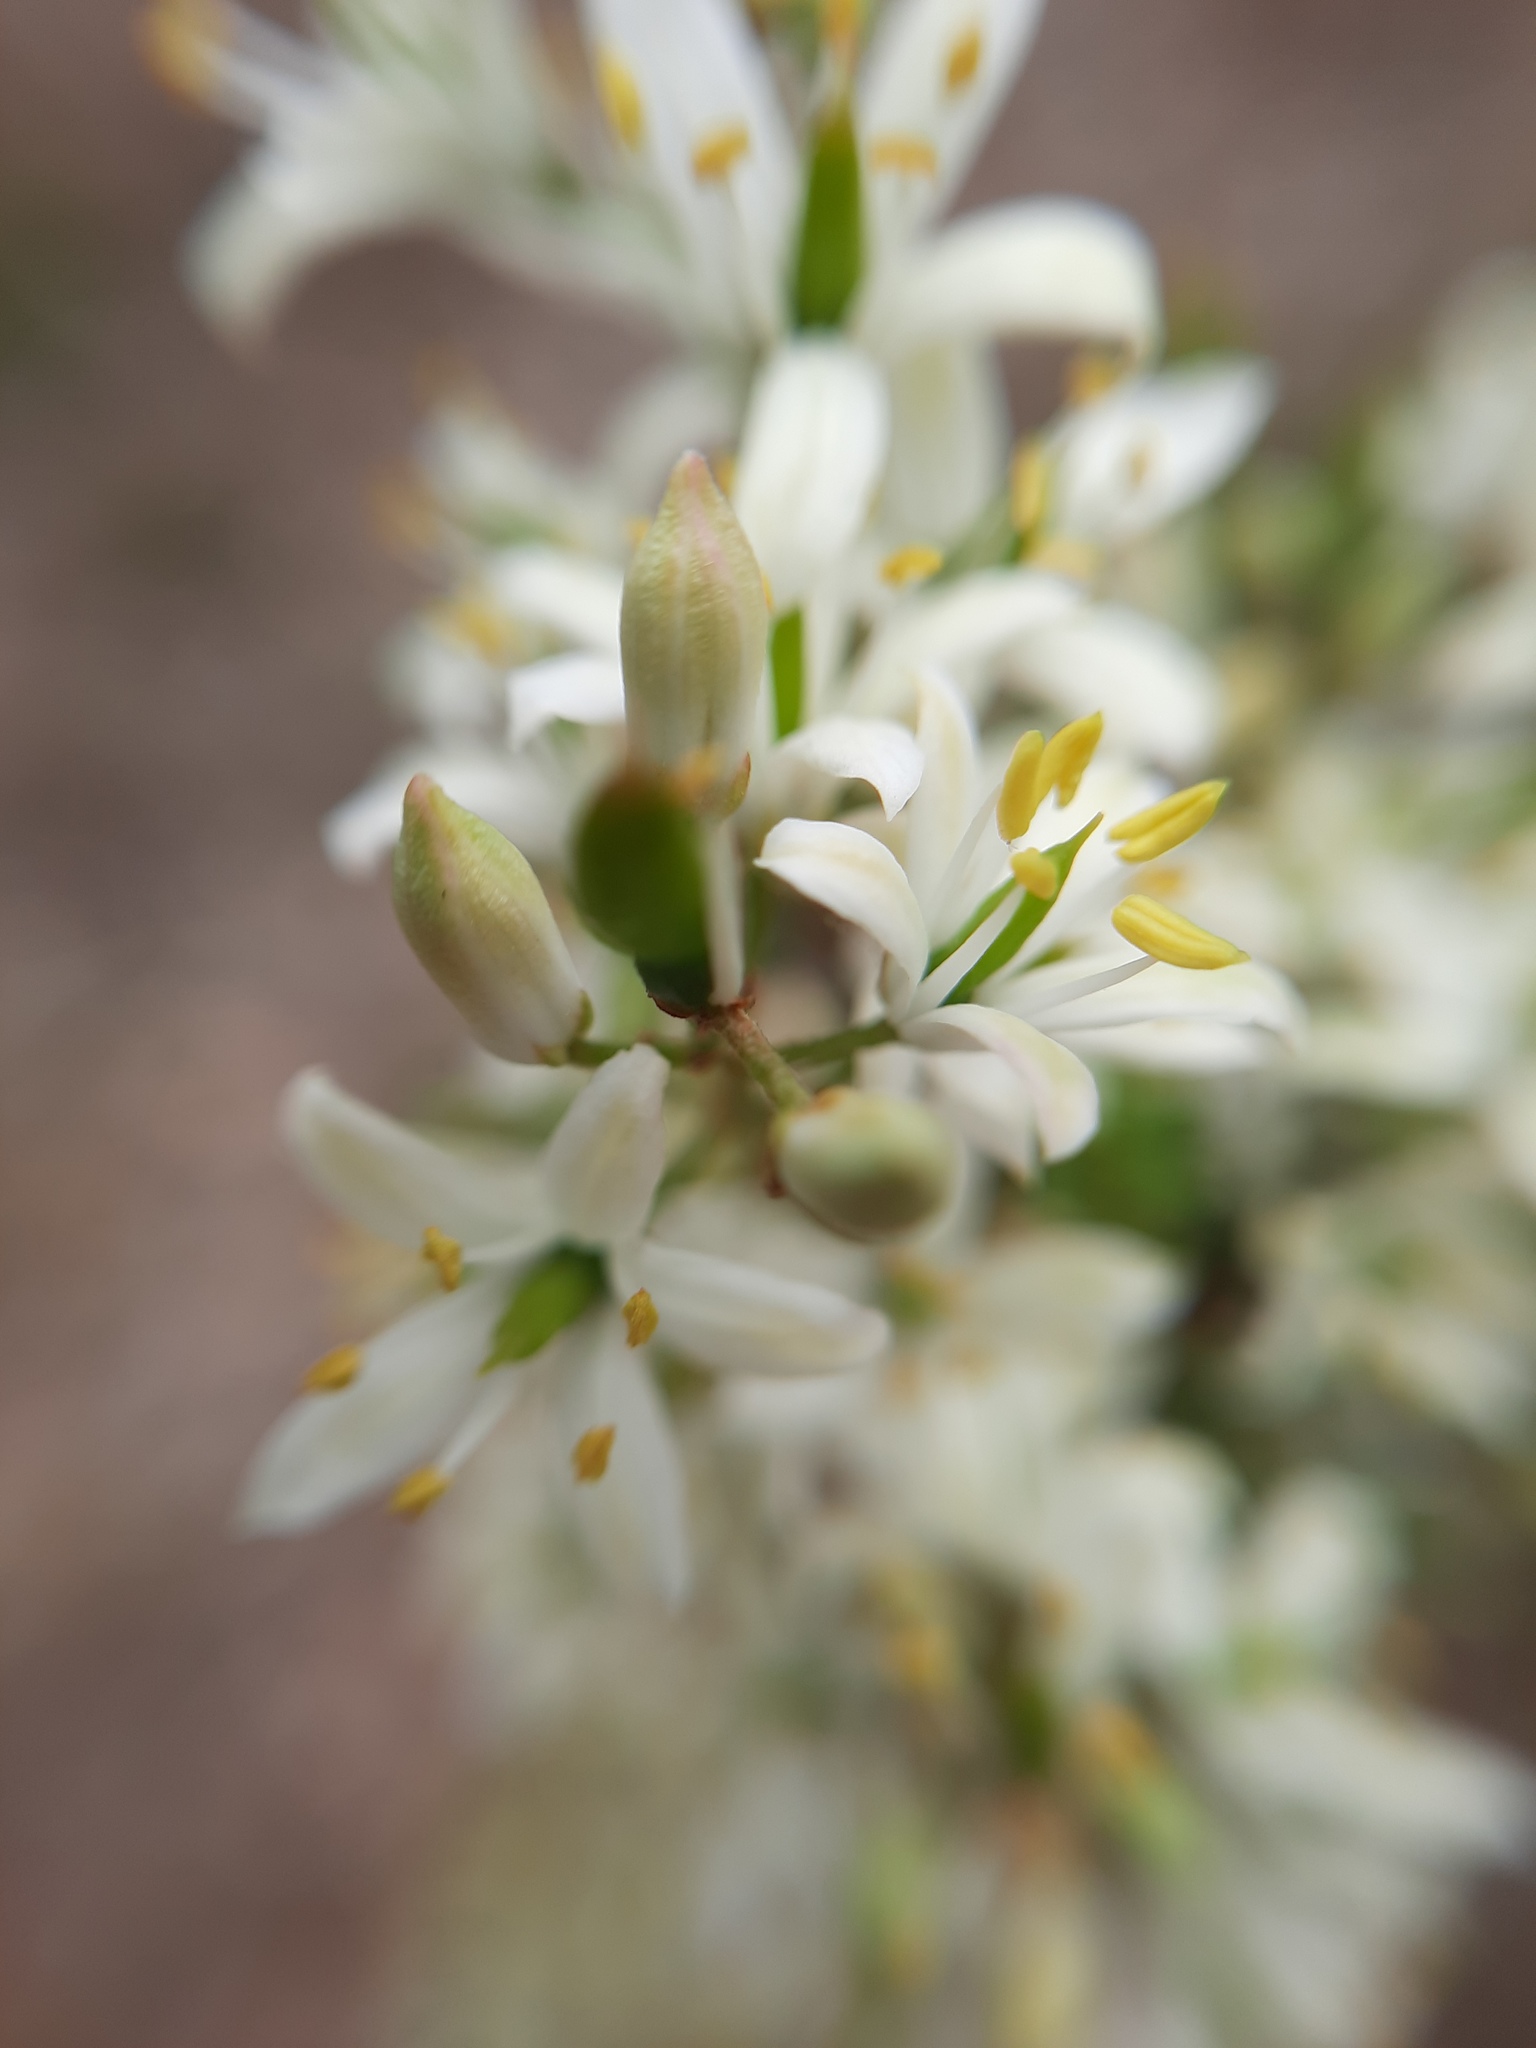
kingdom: Plantae
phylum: Tracheophyta
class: Magnoliopsida
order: Apiales
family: Pittosporaceae
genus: Bursaria
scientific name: Bursaria spinosa
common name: Australian blackthorn
